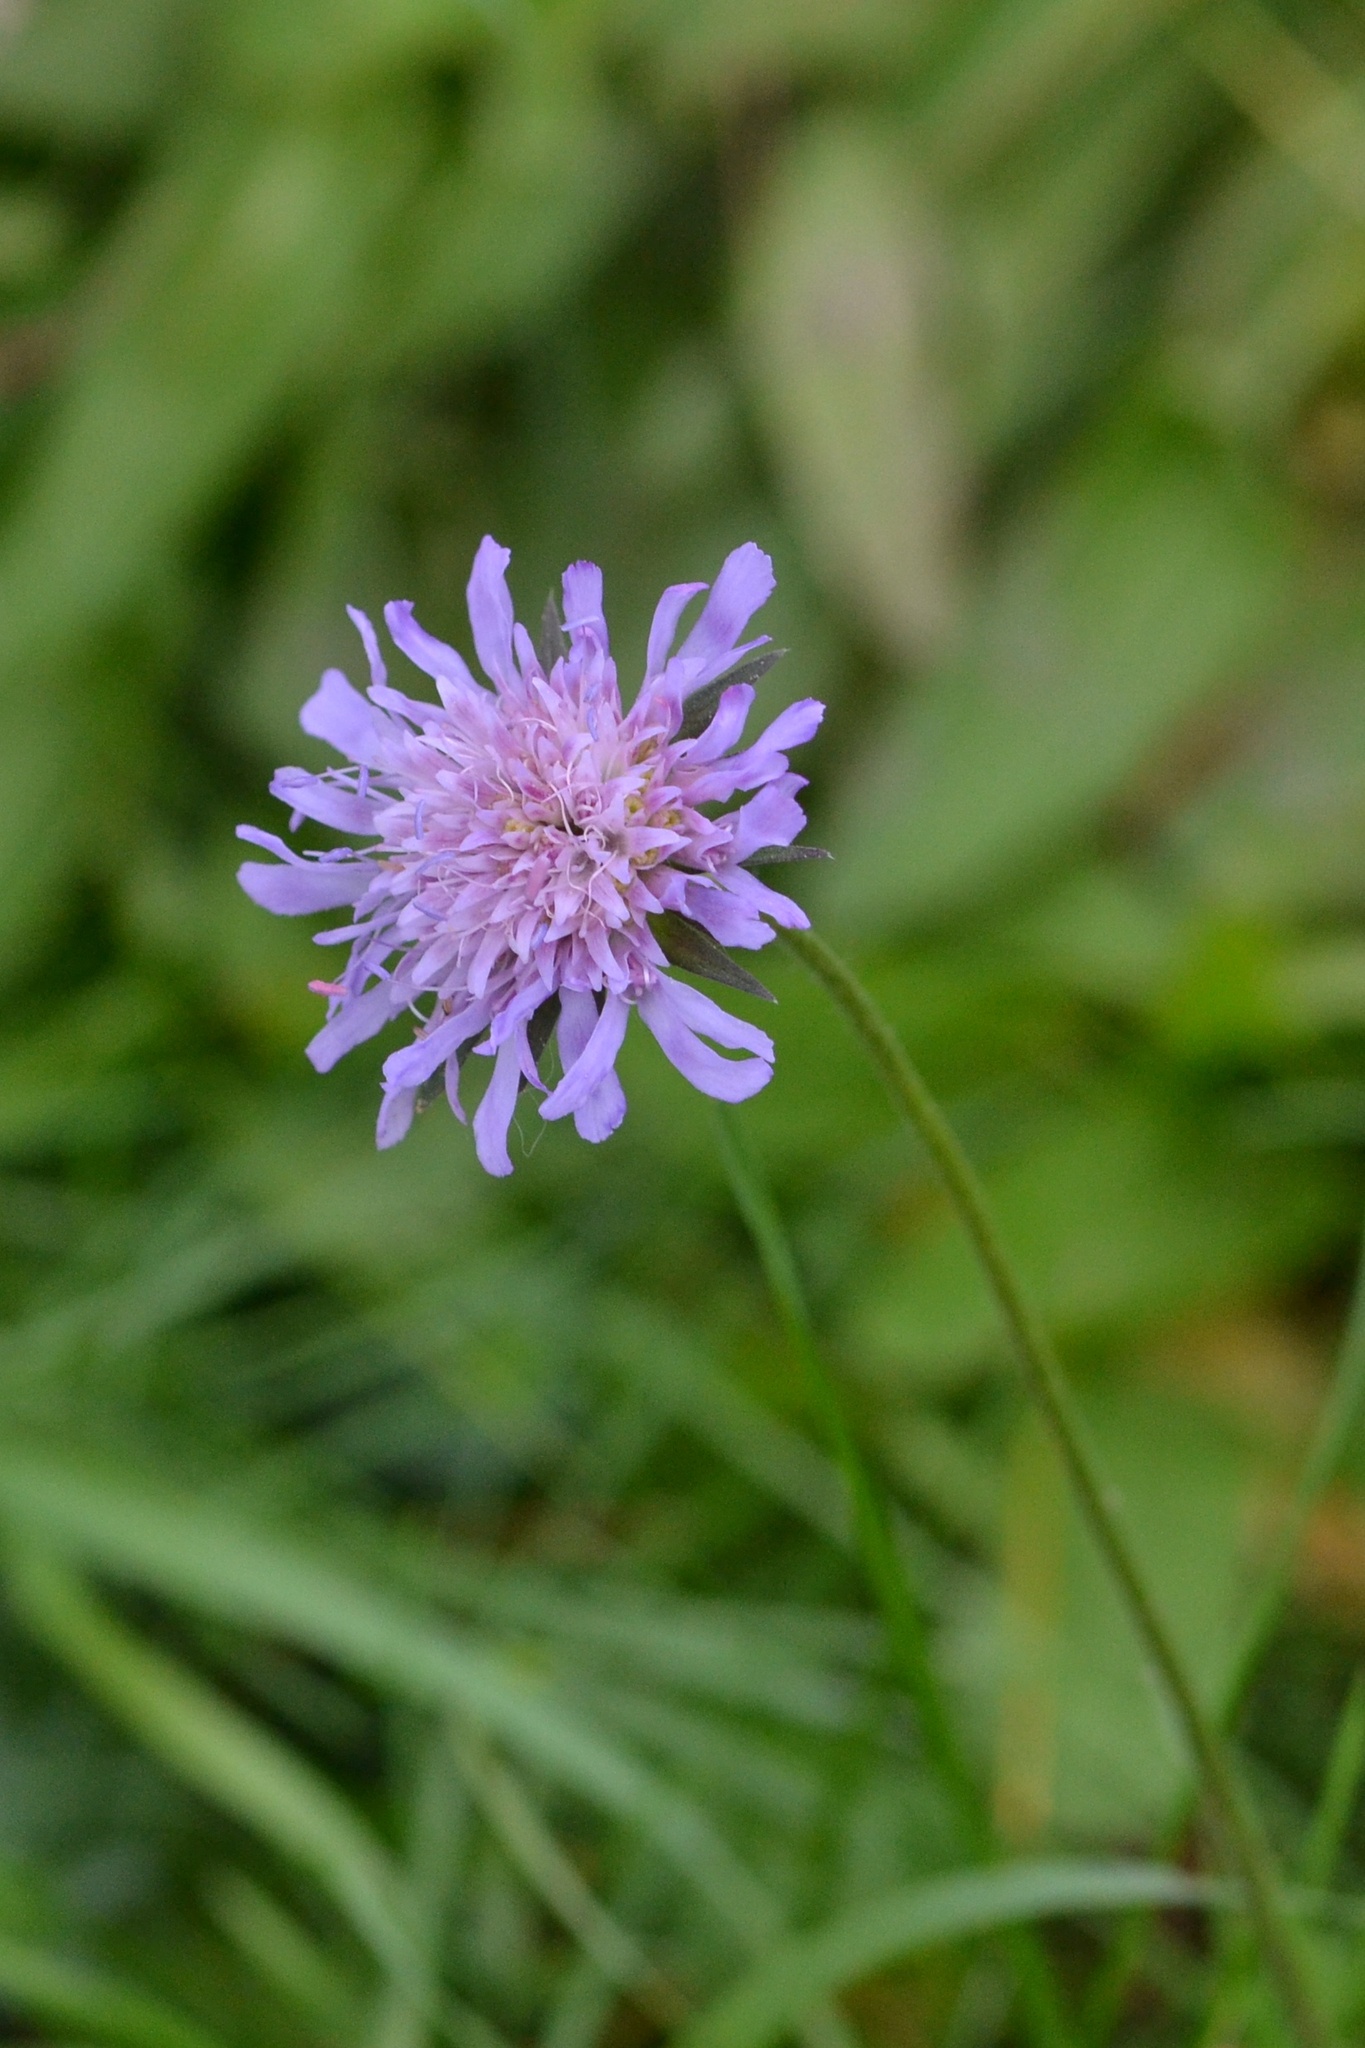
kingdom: Plantae
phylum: Tracheophyta
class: Magnoliopsida
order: Dipsacales
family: Caprifoliaceae
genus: Knautia
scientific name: Knautia arvensis
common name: Field scabiosa
